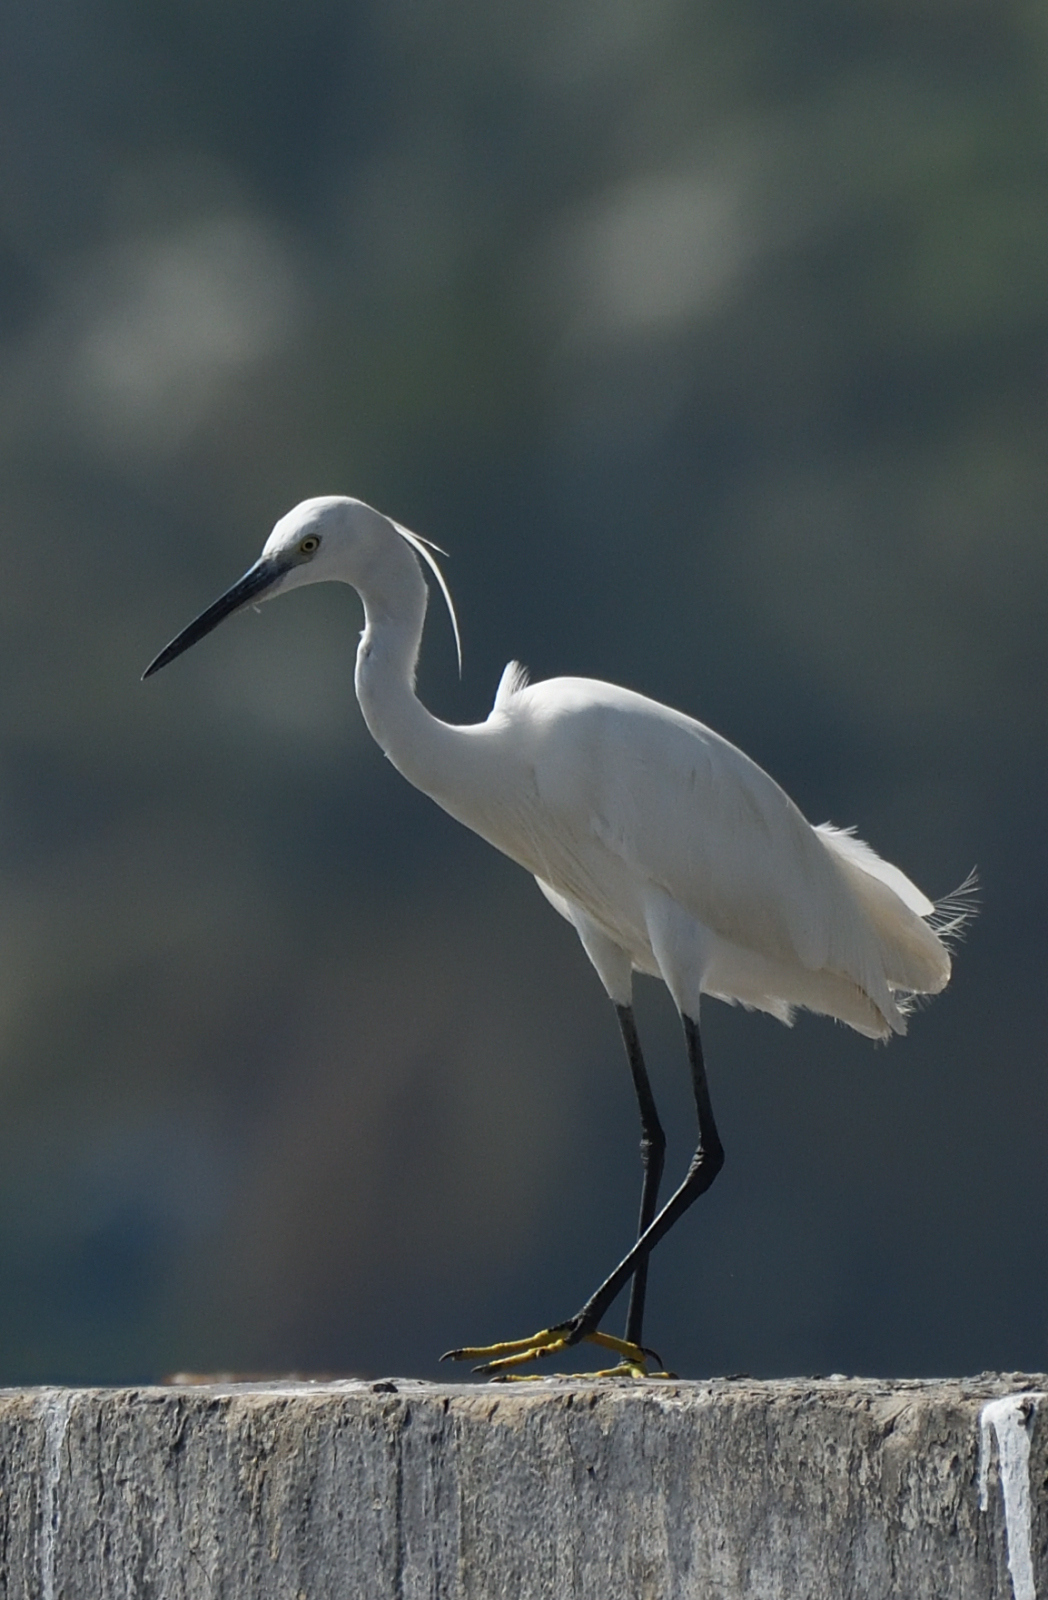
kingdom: Animalia
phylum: Chordata
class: Aves
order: Pelecaniformes
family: Ardeidae
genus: Egretta
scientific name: Egretta garzetta
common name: Little egret
